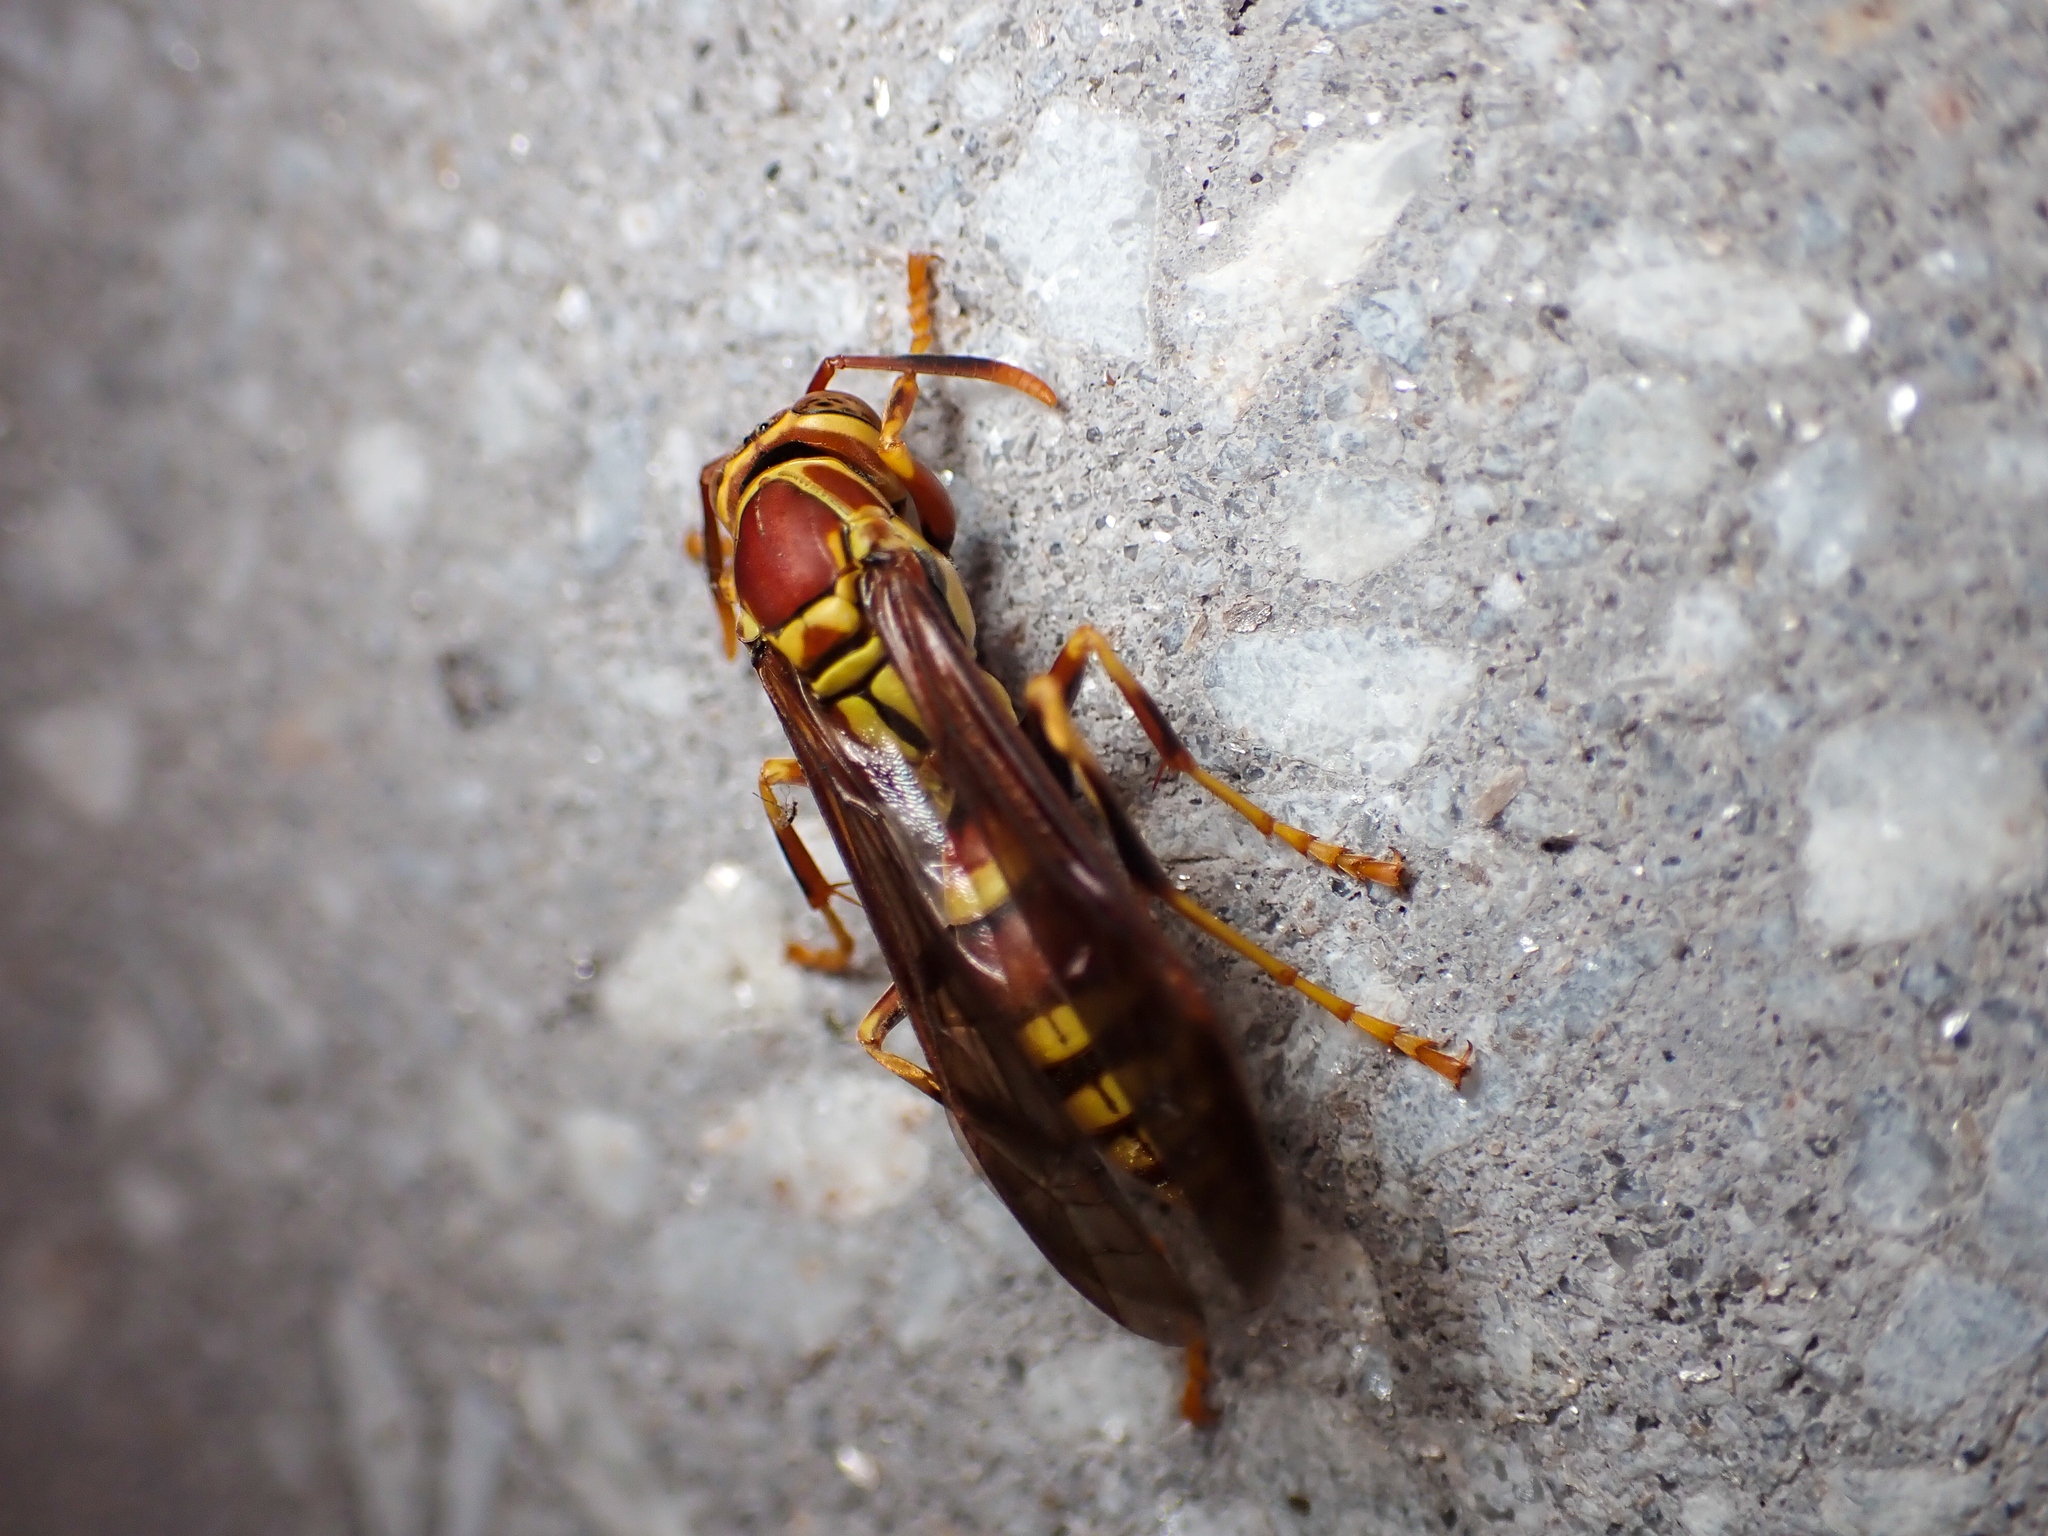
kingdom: Animalia
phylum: Arthropoda
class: Insecta
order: Hymenoptera
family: Eumenidae
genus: Polistes
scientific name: Polistes exclamans
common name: Paper wasp
